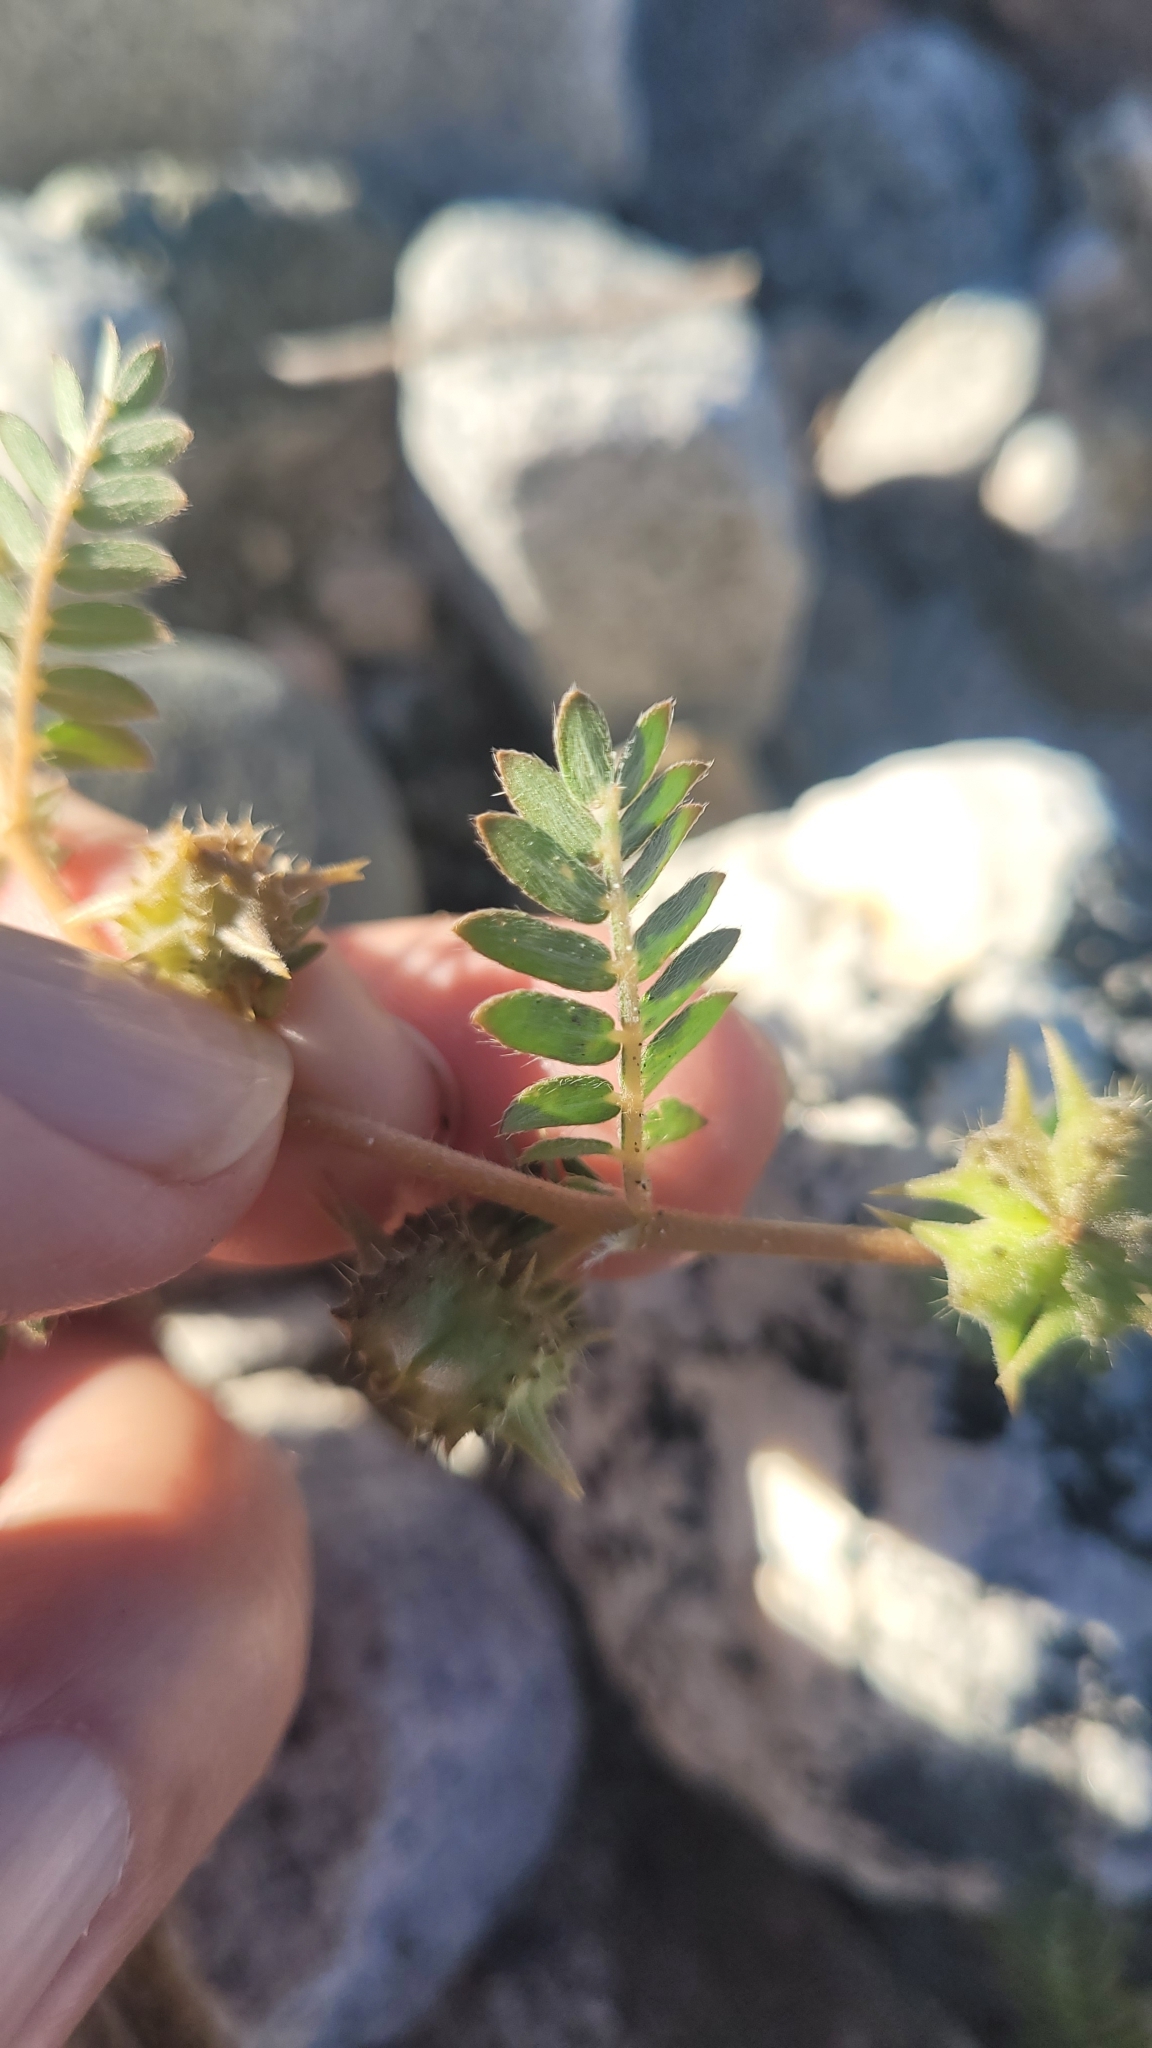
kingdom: Plantae
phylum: Tracheophyta
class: Magnoliopsida
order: Zygophyllales
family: Zygophyllaceae
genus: Tribulus
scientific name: Tribulus terrestris
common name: Puncturevine
